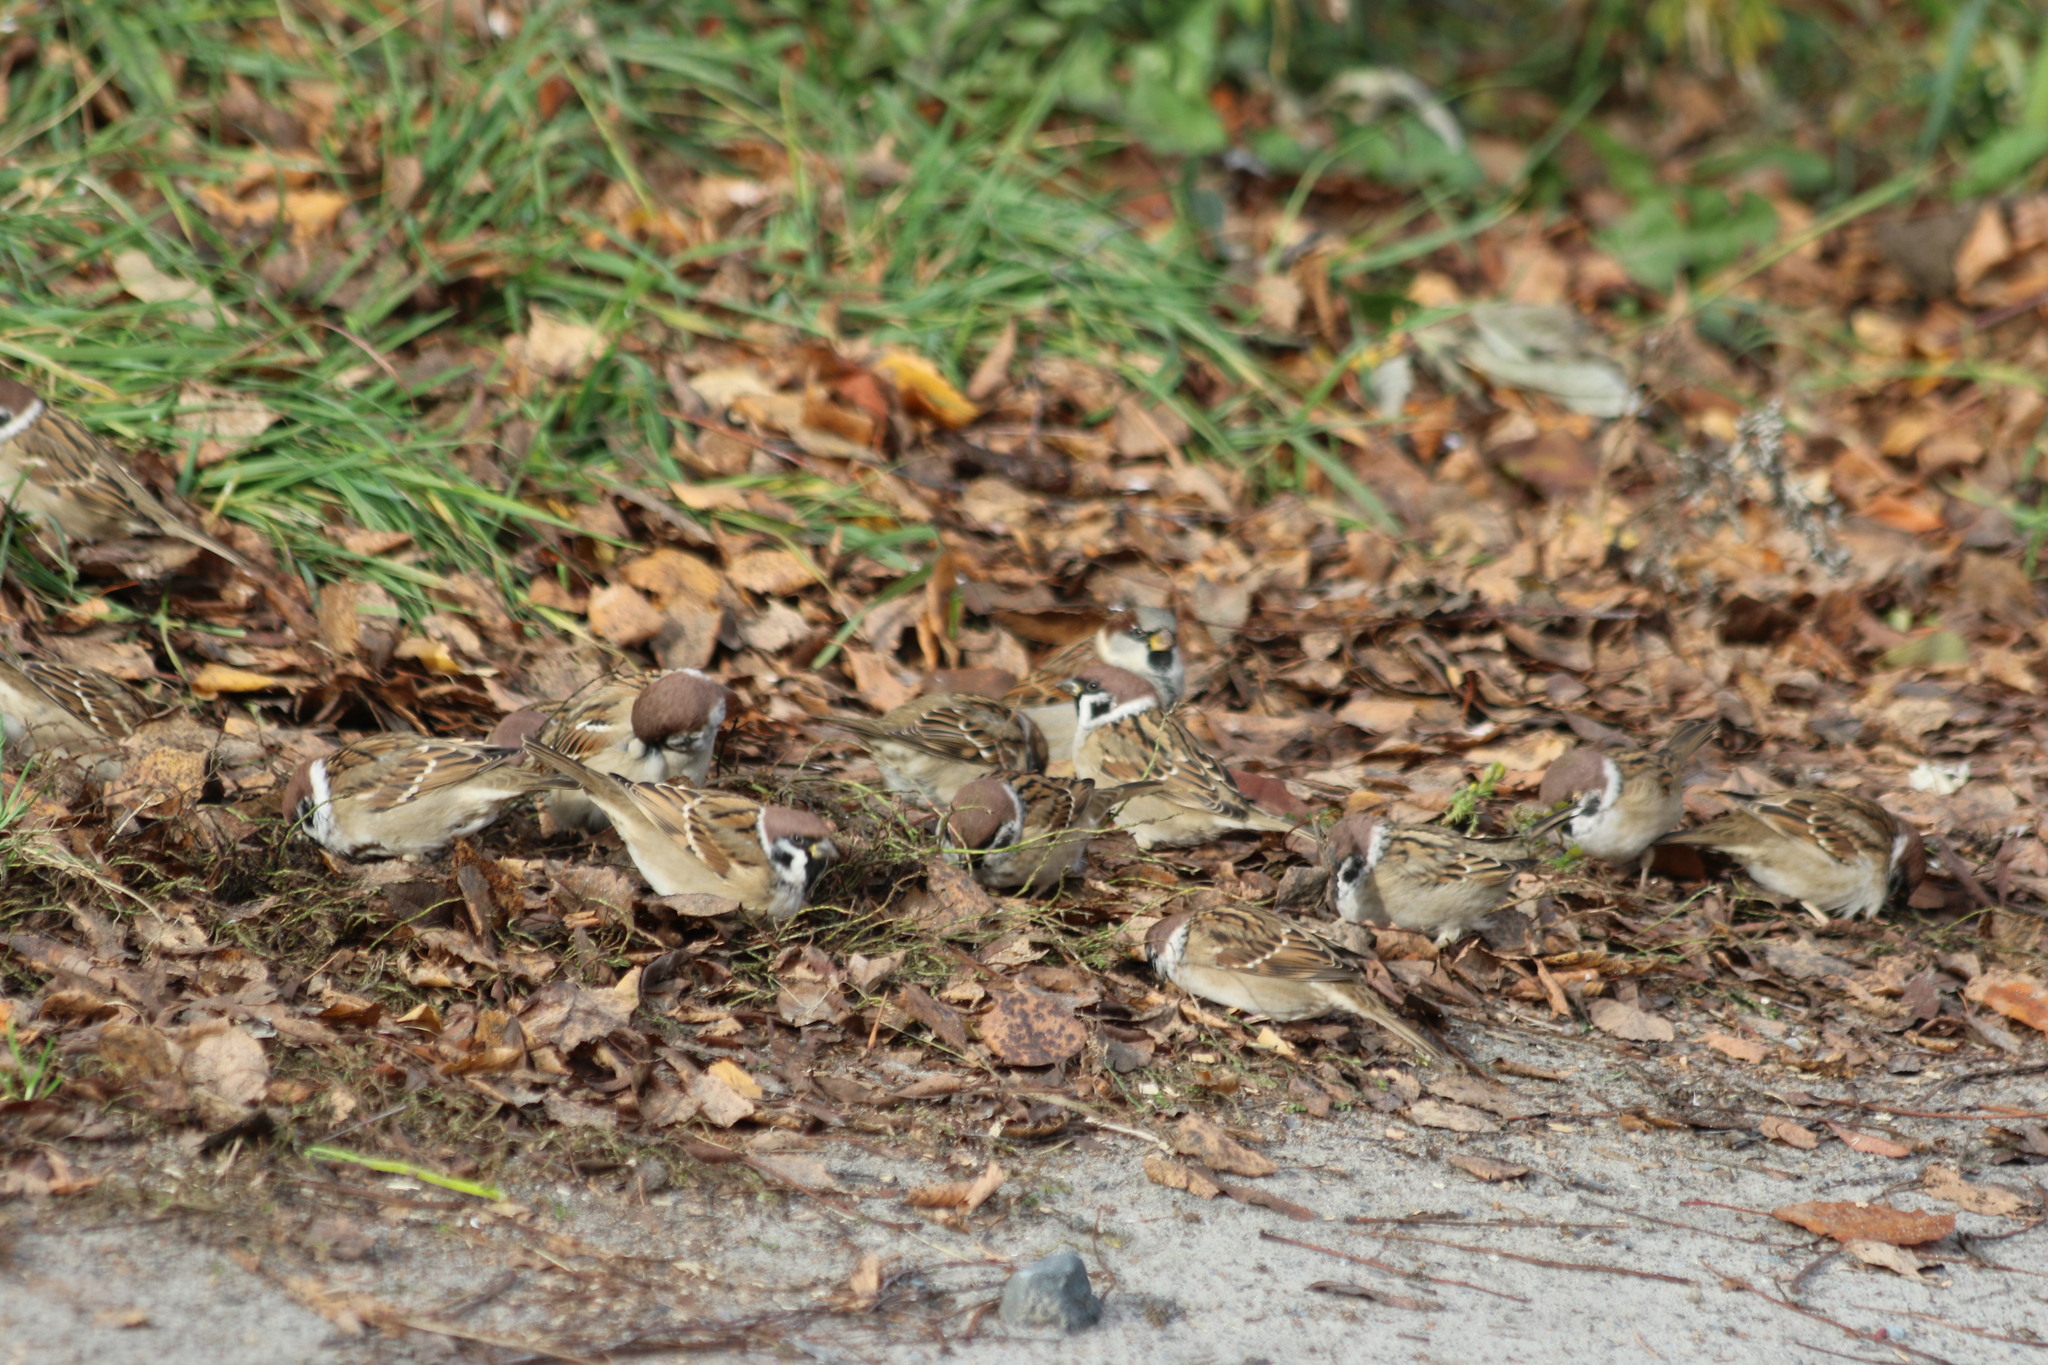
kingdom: Animalia
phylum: Chordata
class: Aves
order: Passeriformes
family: Passeridae
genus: Passer
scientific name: Passer montanus
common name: Eurasian tree sparrow
